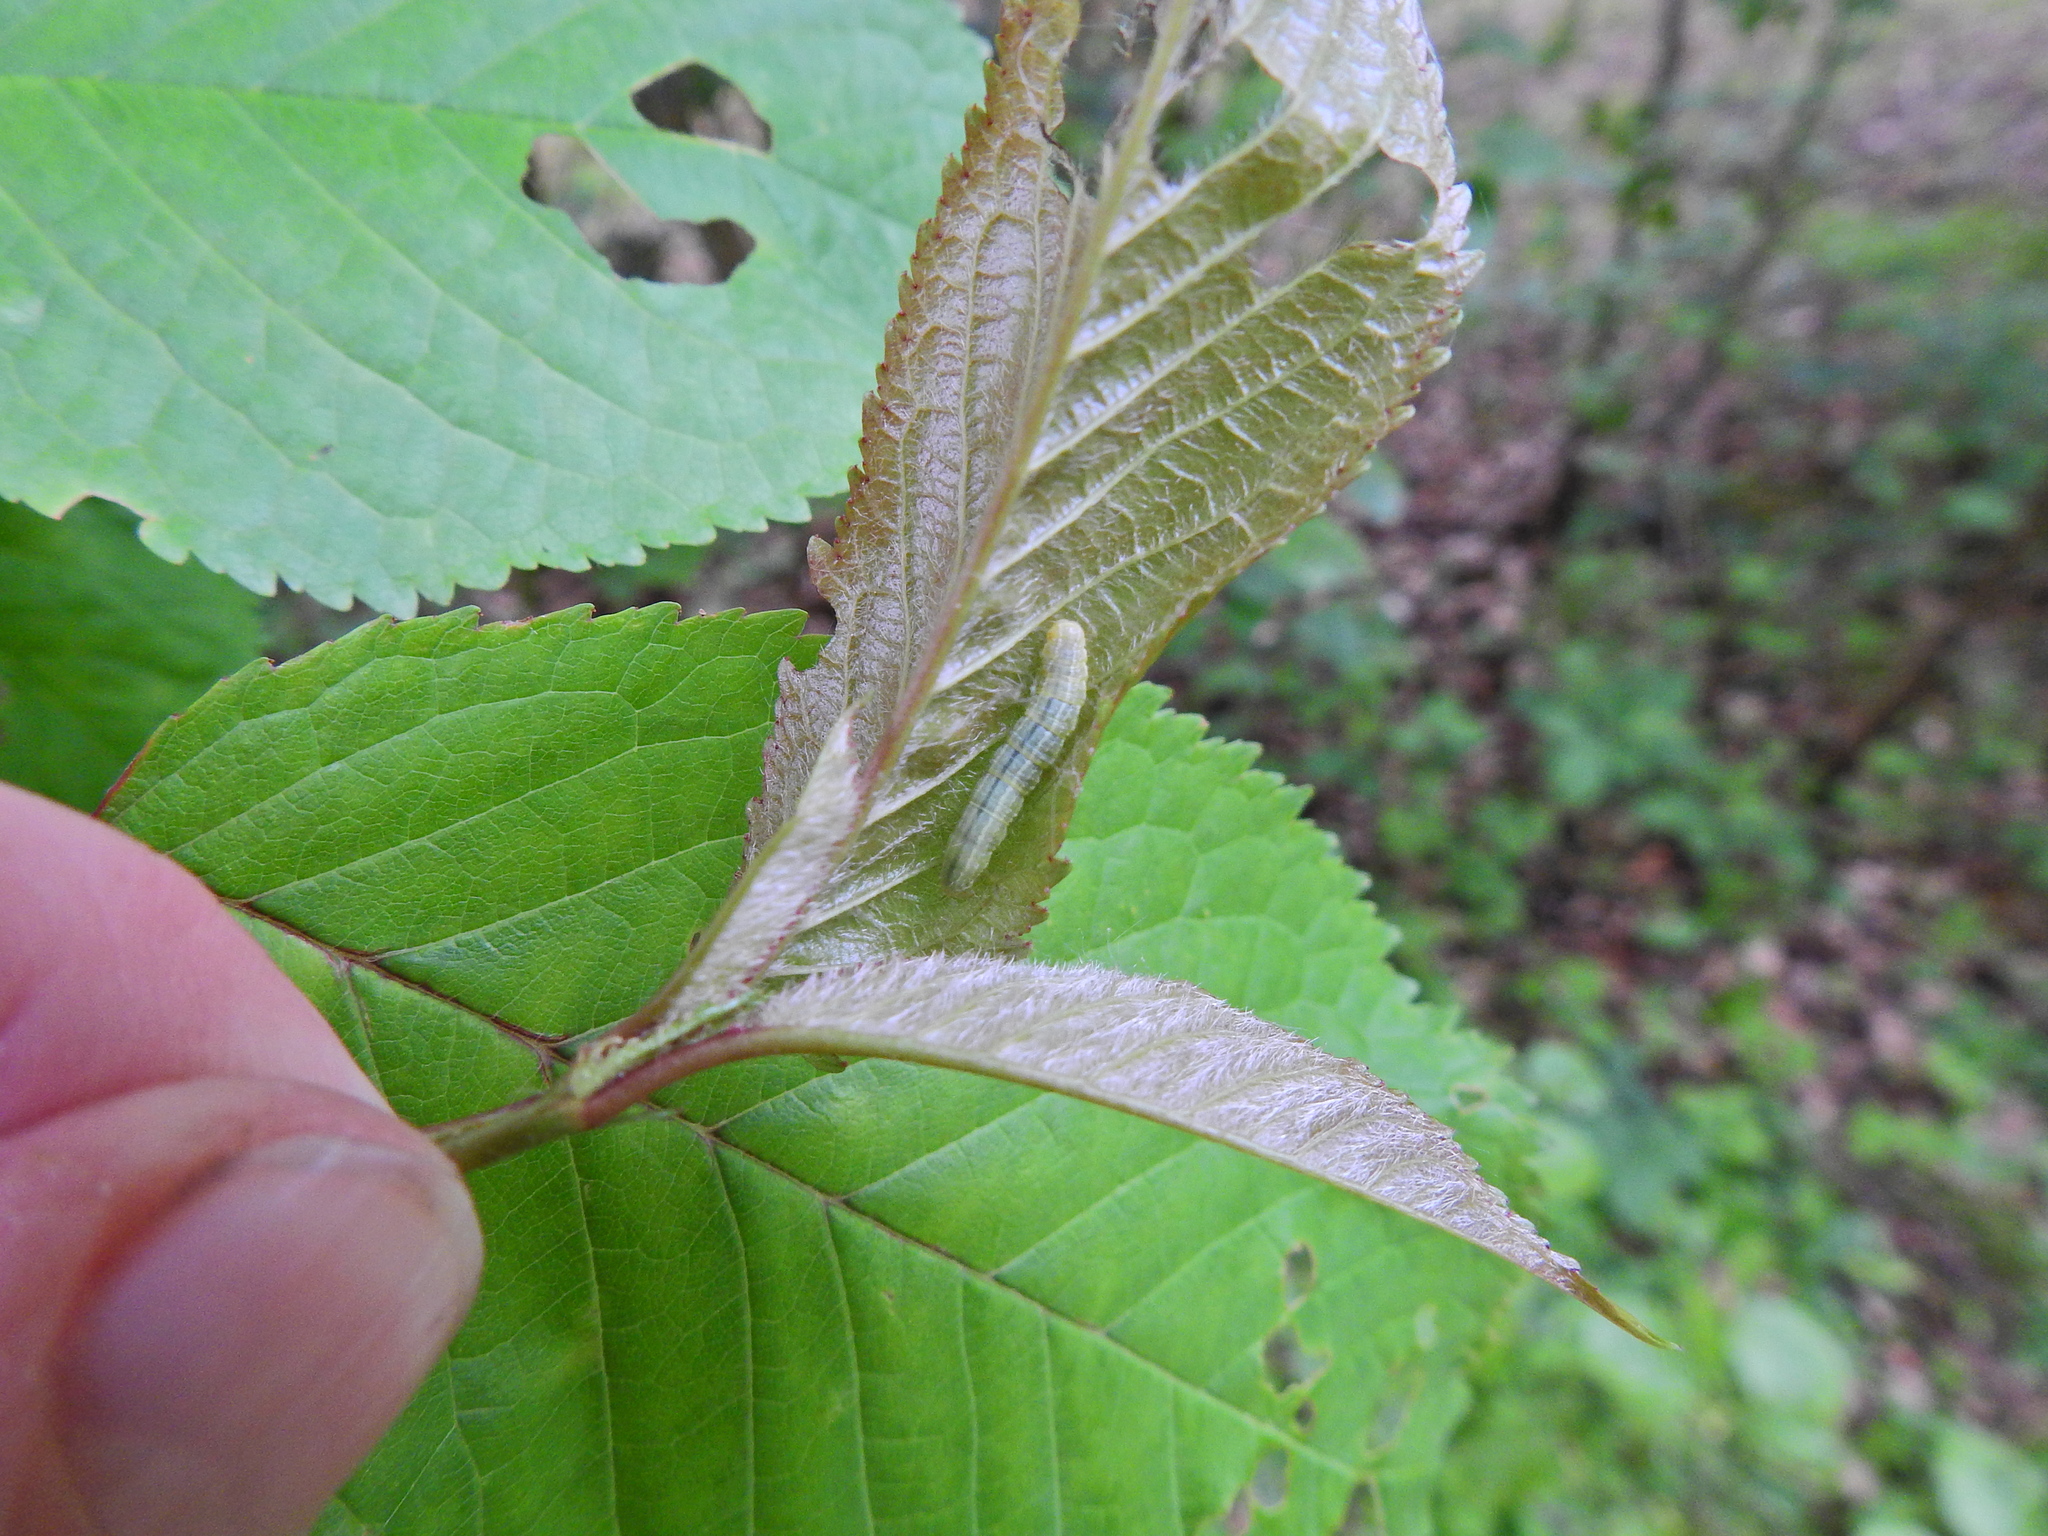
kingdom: Animalia
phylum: Arthropoda
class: Insecta
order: Lepidoptera
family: Geometridae
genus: Operophtera
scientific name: Operophtera
